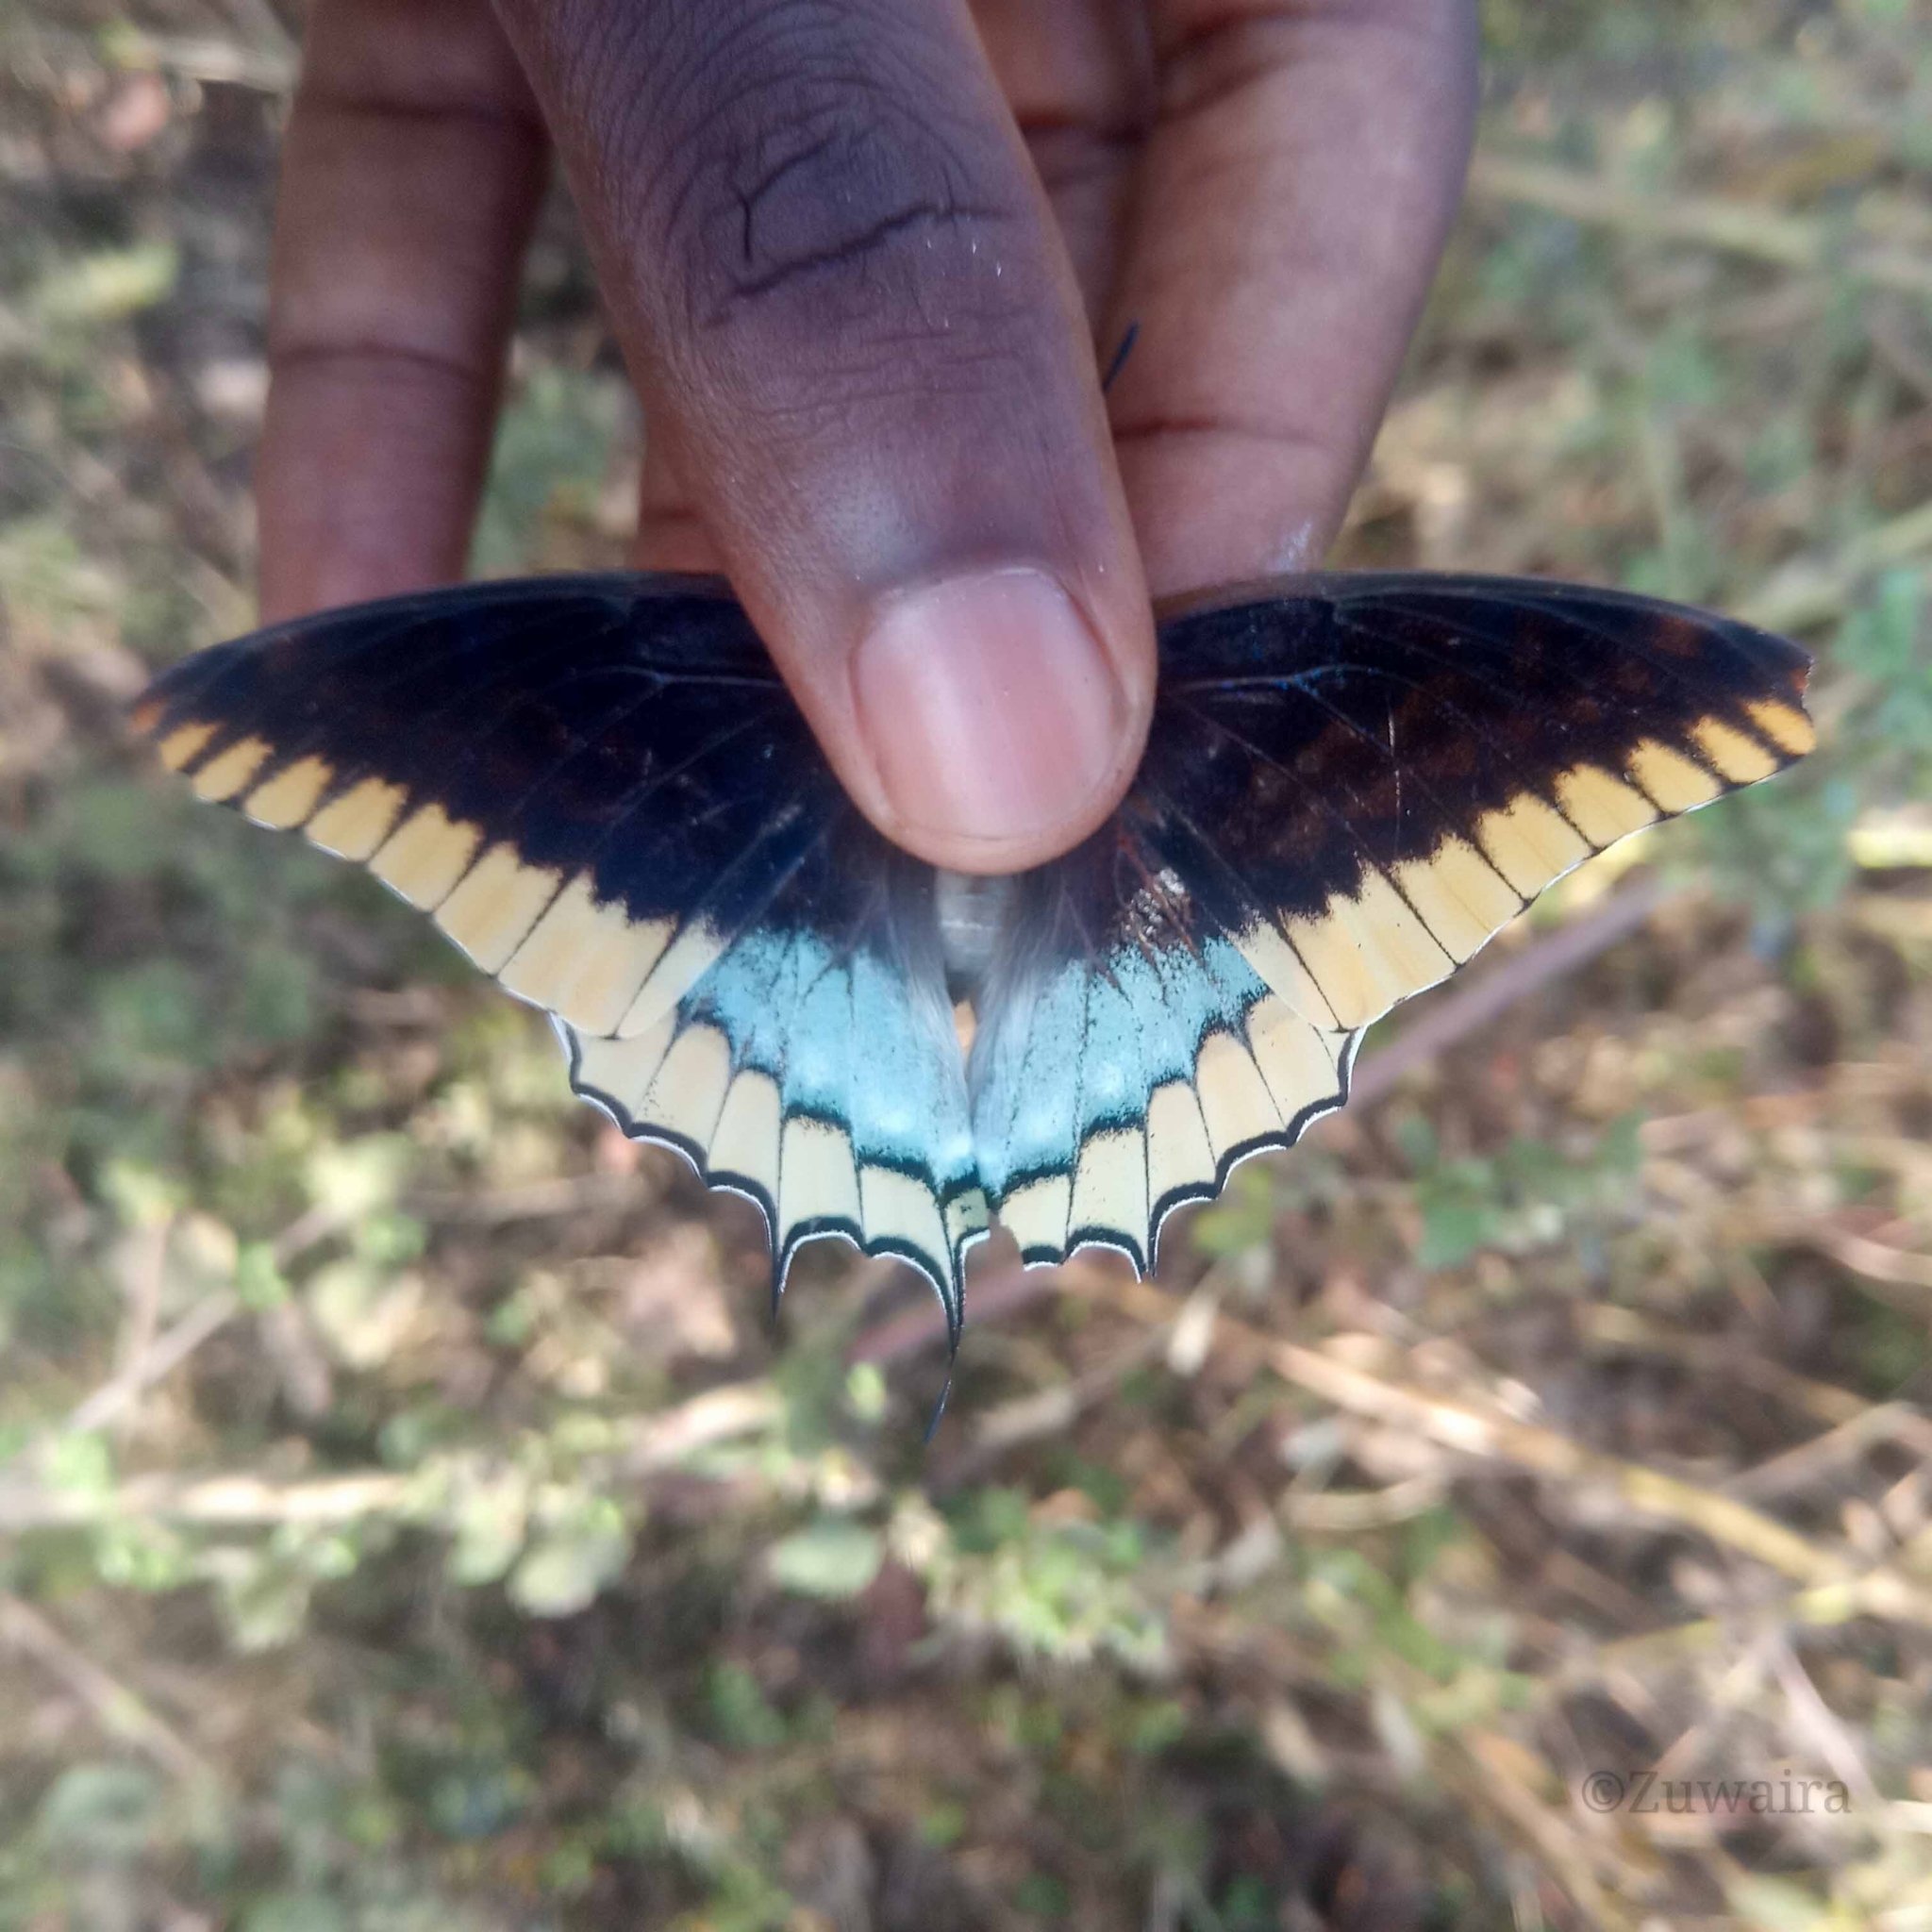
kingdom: Animalia
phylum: Arthropoda
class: Insecta
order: Lepidoptera
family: Nymphalidae
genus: Charaxes
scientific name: Charaxes jasius
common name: Two tailed pasha
